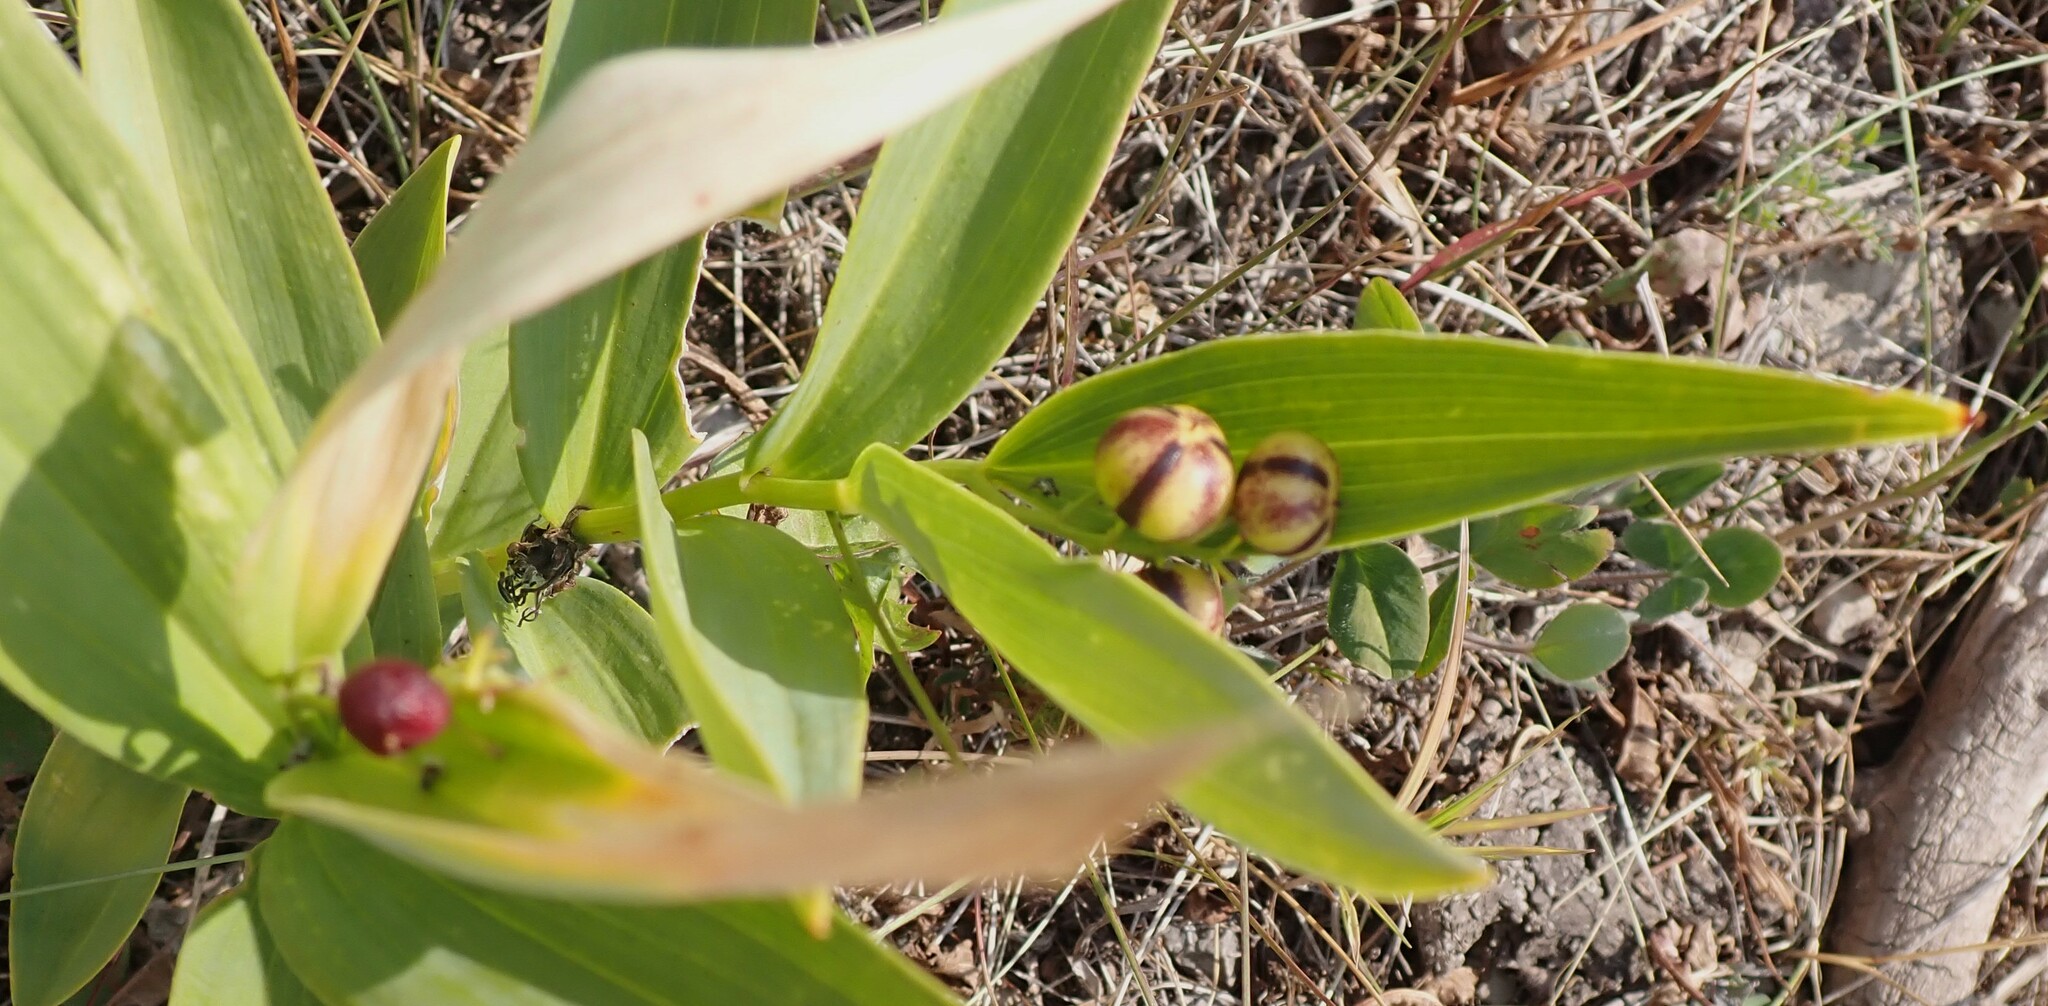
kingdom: Plantae
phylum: Tracheophyta
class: Liliopsida
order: Asparagales
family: Asparagaceae
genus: Maianthemum
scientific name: Maianthemum stellatum
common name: Little false solomon's seal
